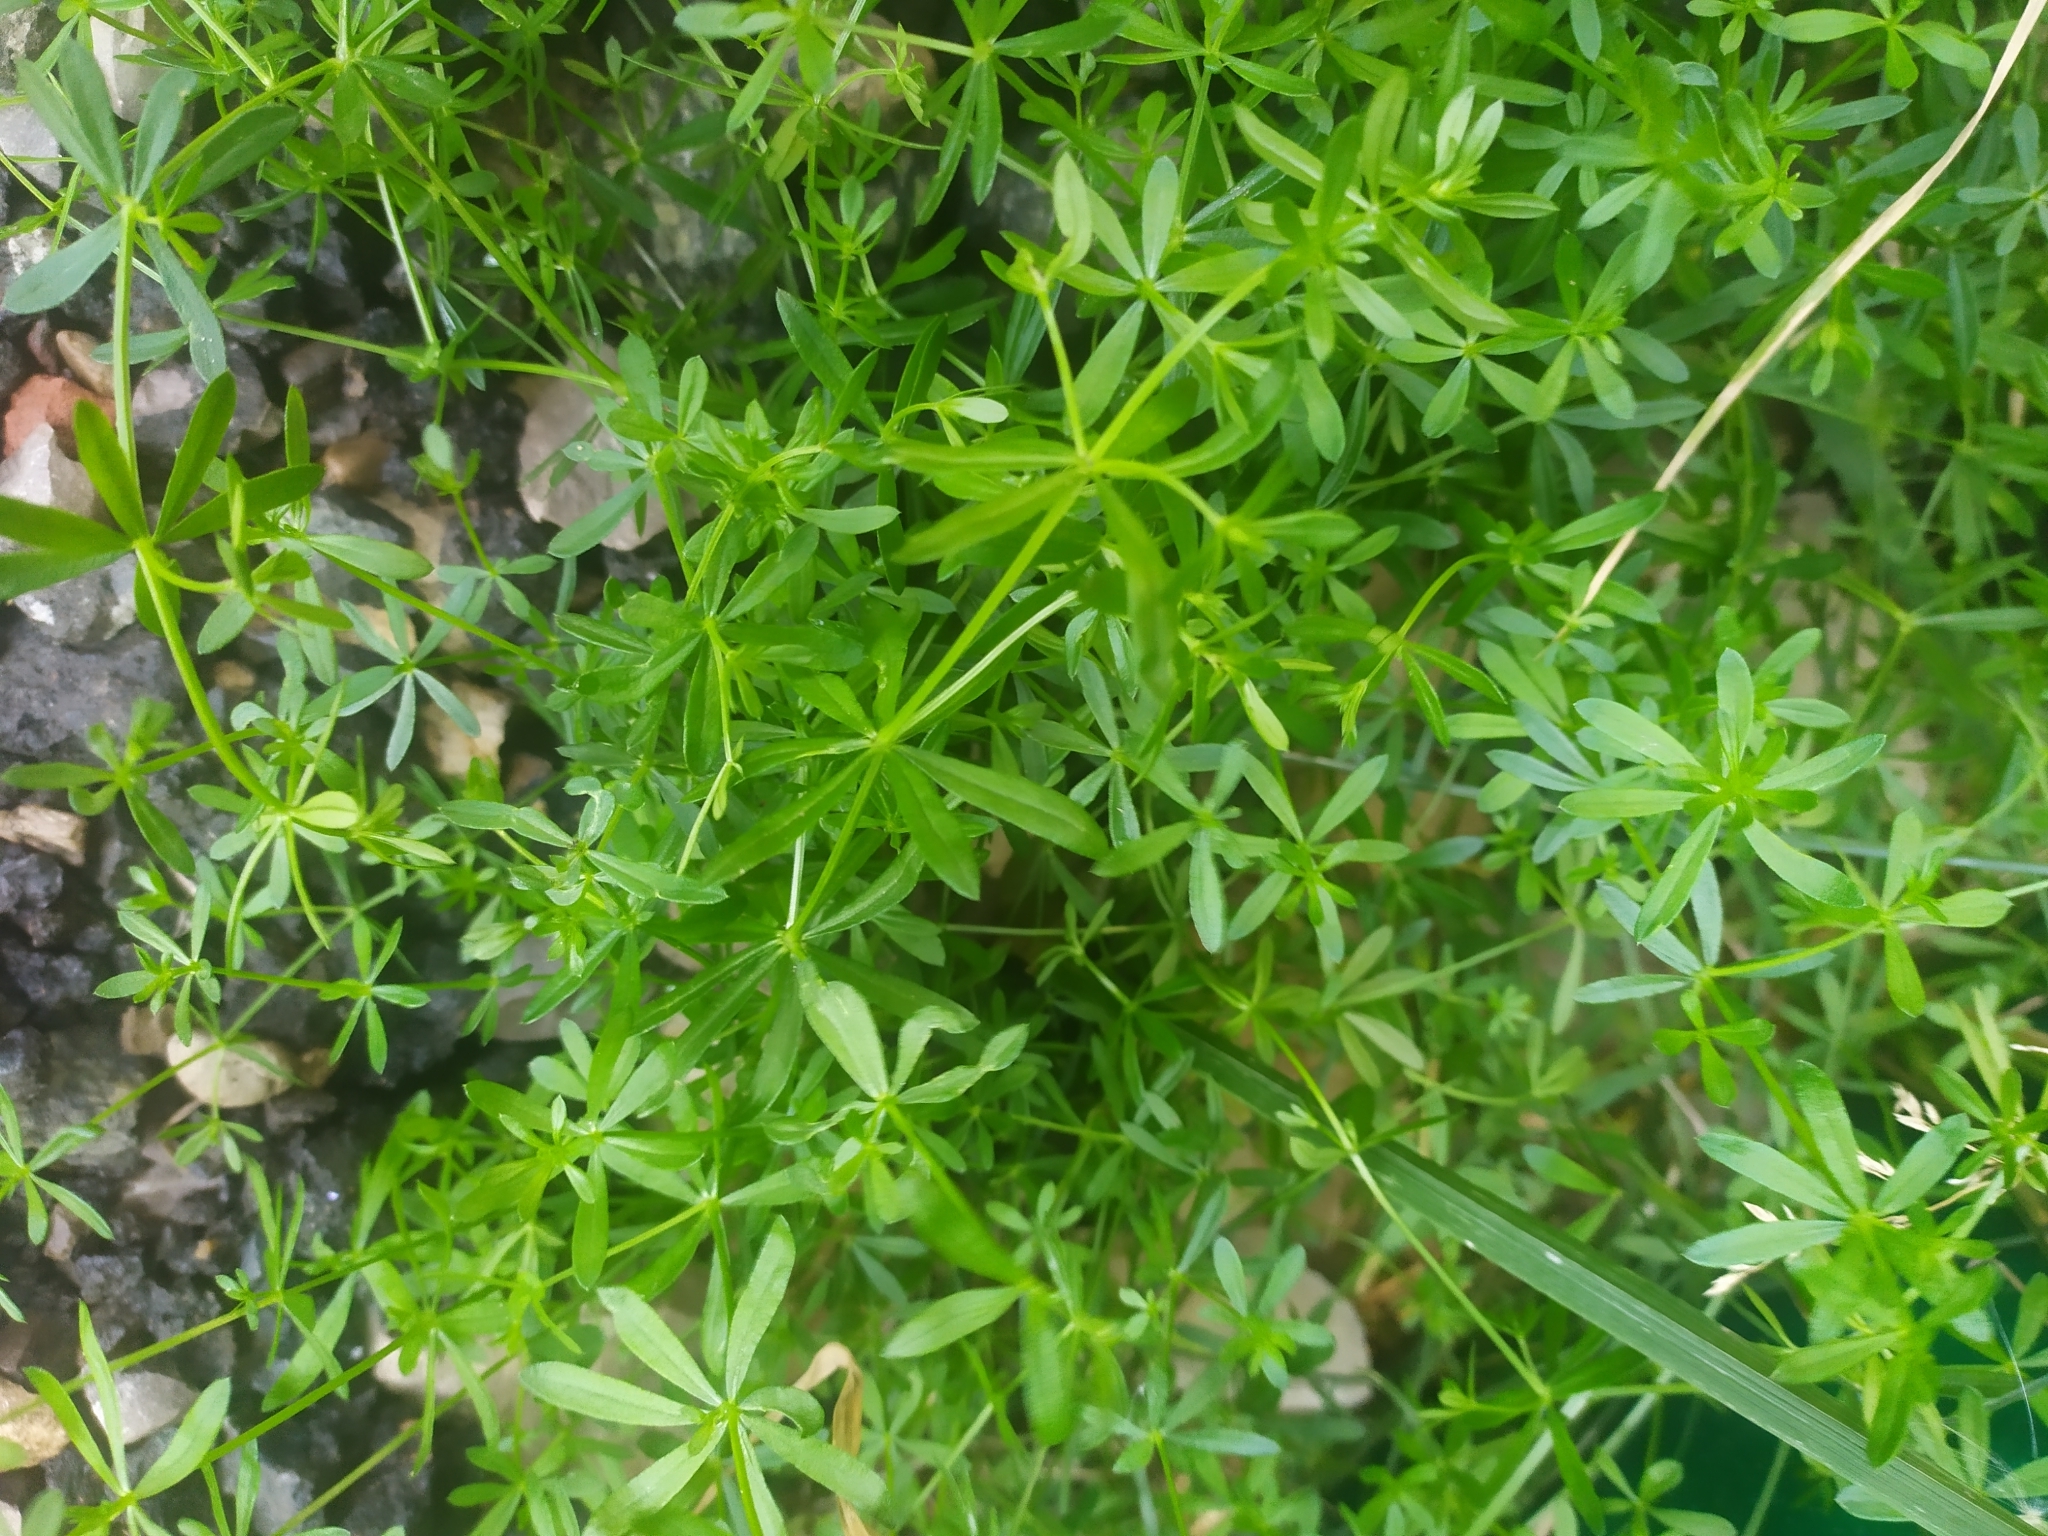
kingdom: Plantae
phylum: Tracheophyta
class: Magnoliopsida
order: Gentianales
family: Rubiaceae
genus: Galium
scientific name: Galium mollugo
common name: Hedge bedstraw
